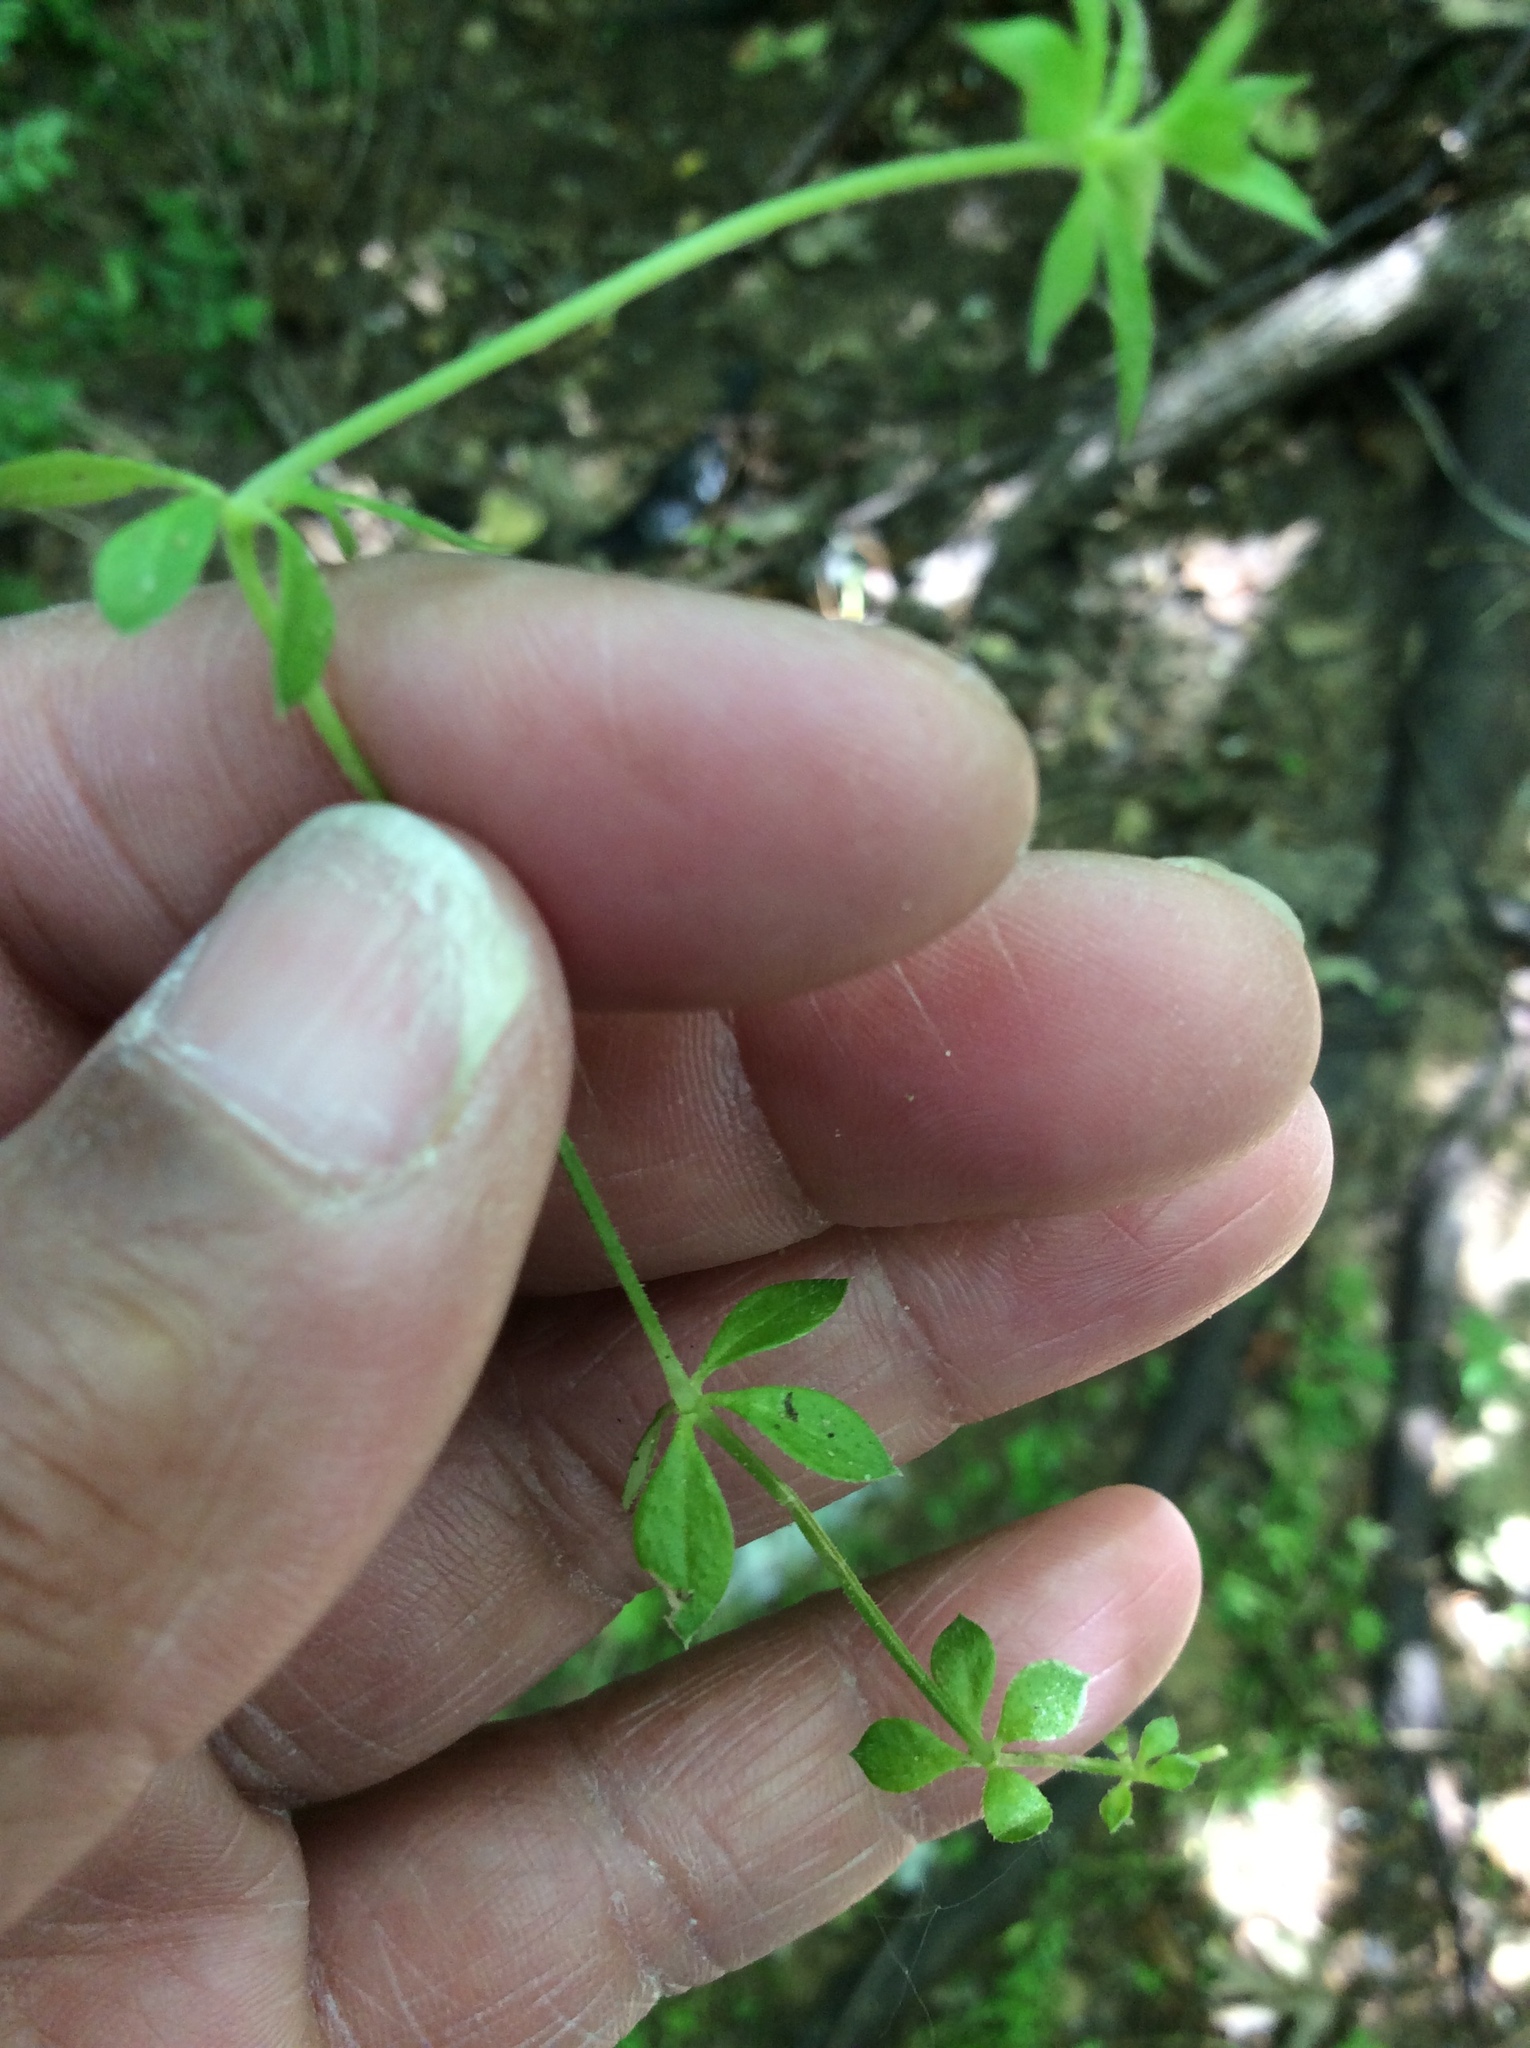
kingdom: Plantae
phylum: Tracheophyta
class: Magnoliopsida
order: Gentianales
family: Rubiaceae
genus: Galium
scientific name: Galium aparine
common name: Cleavers
